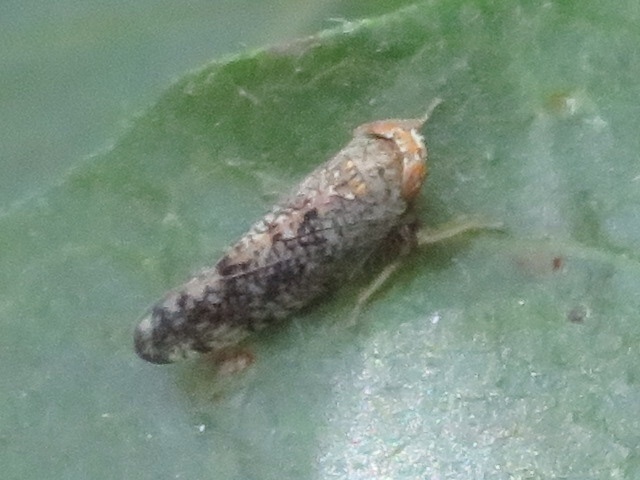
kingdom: Animalia
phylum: Arthropoda
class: Insecta
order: Hemiptera
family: Cicadellidae
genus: Orientus
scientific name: Orientus ishidae
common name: Japanese leafhopper
